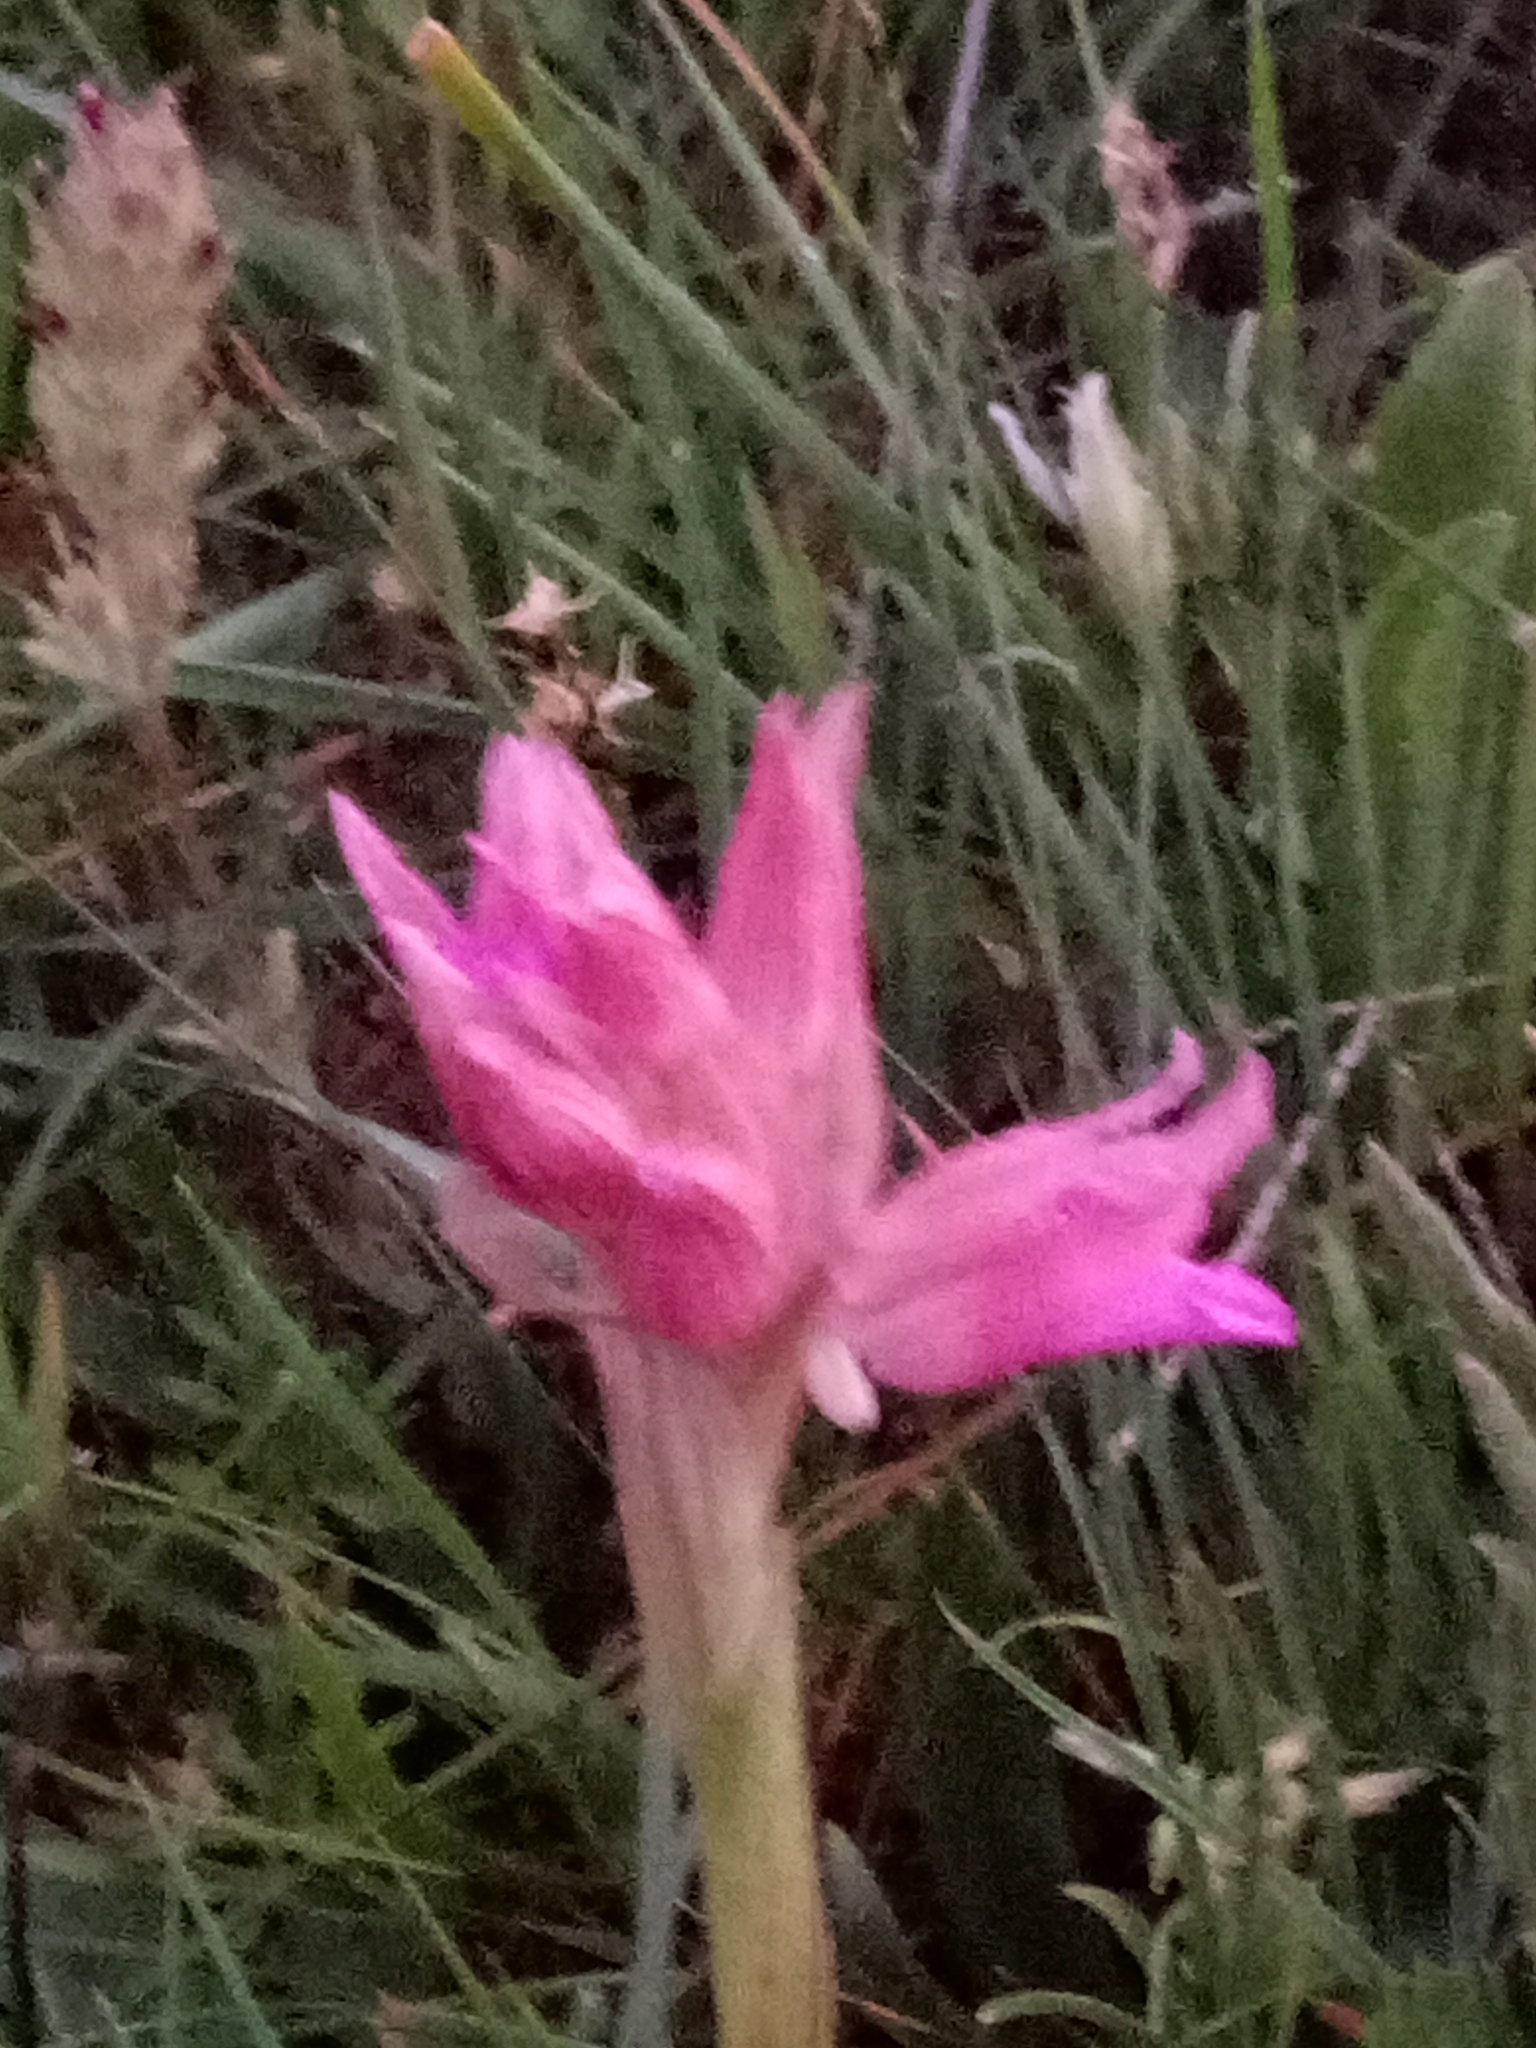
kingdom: Plantae
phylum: Tracheophyta
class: Liliopsida
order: Asparagales
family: Orchidaceae
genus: Anacamptis
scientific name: Anacamptis papilionacea
